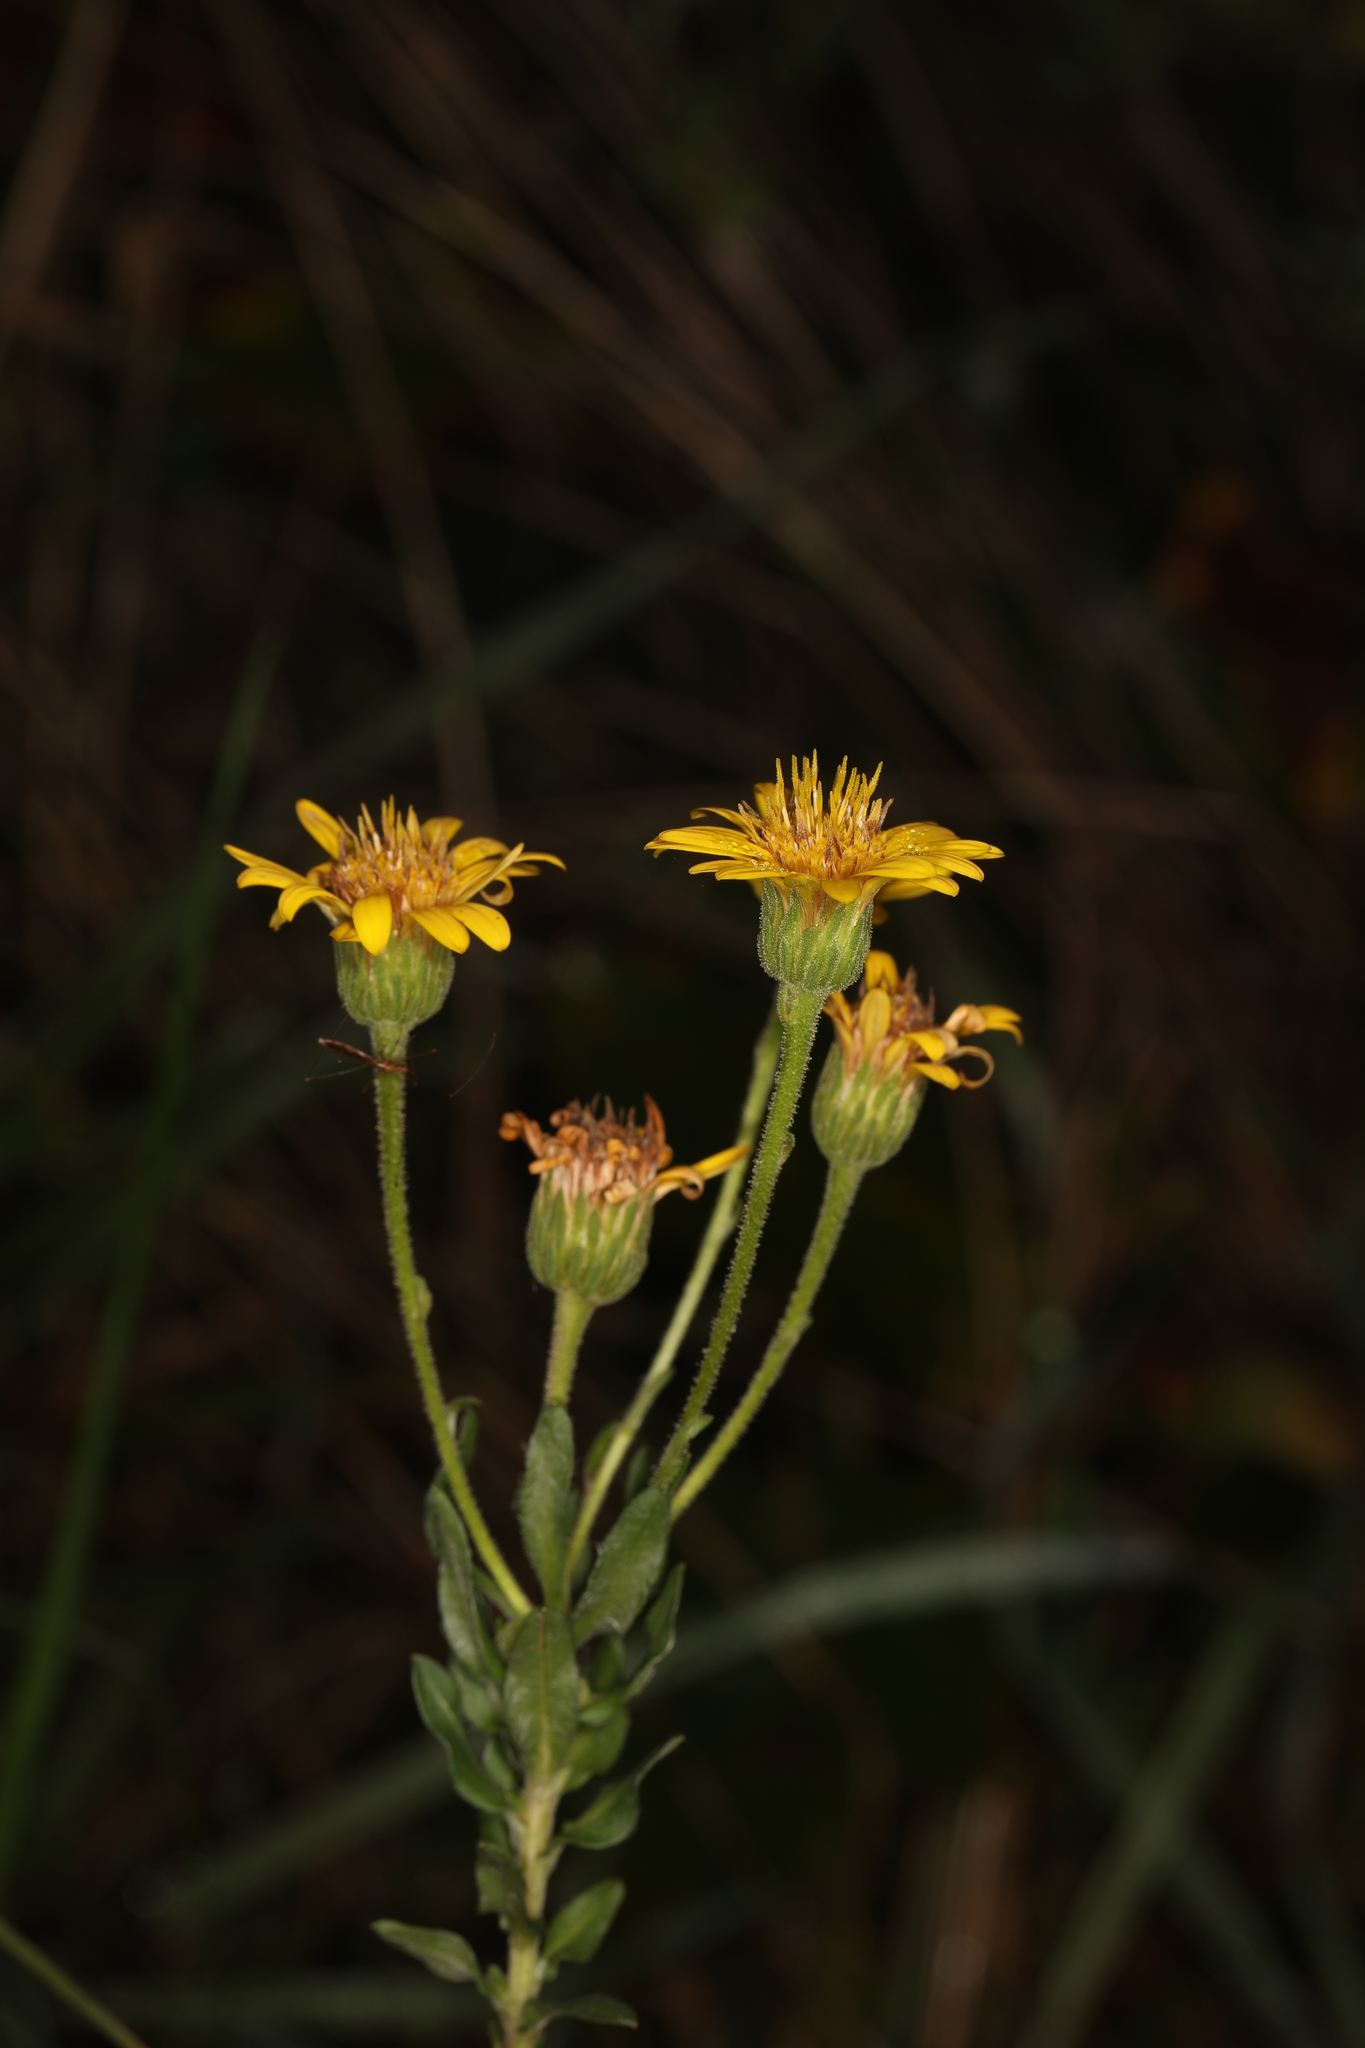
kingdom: Plantae
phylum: Tracheophyta
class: Magnoliopsida
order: Asterales
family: Asteraceae
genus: Chrysopsis
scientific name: Chrysopsis mariana
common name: Maryland golden-aster
